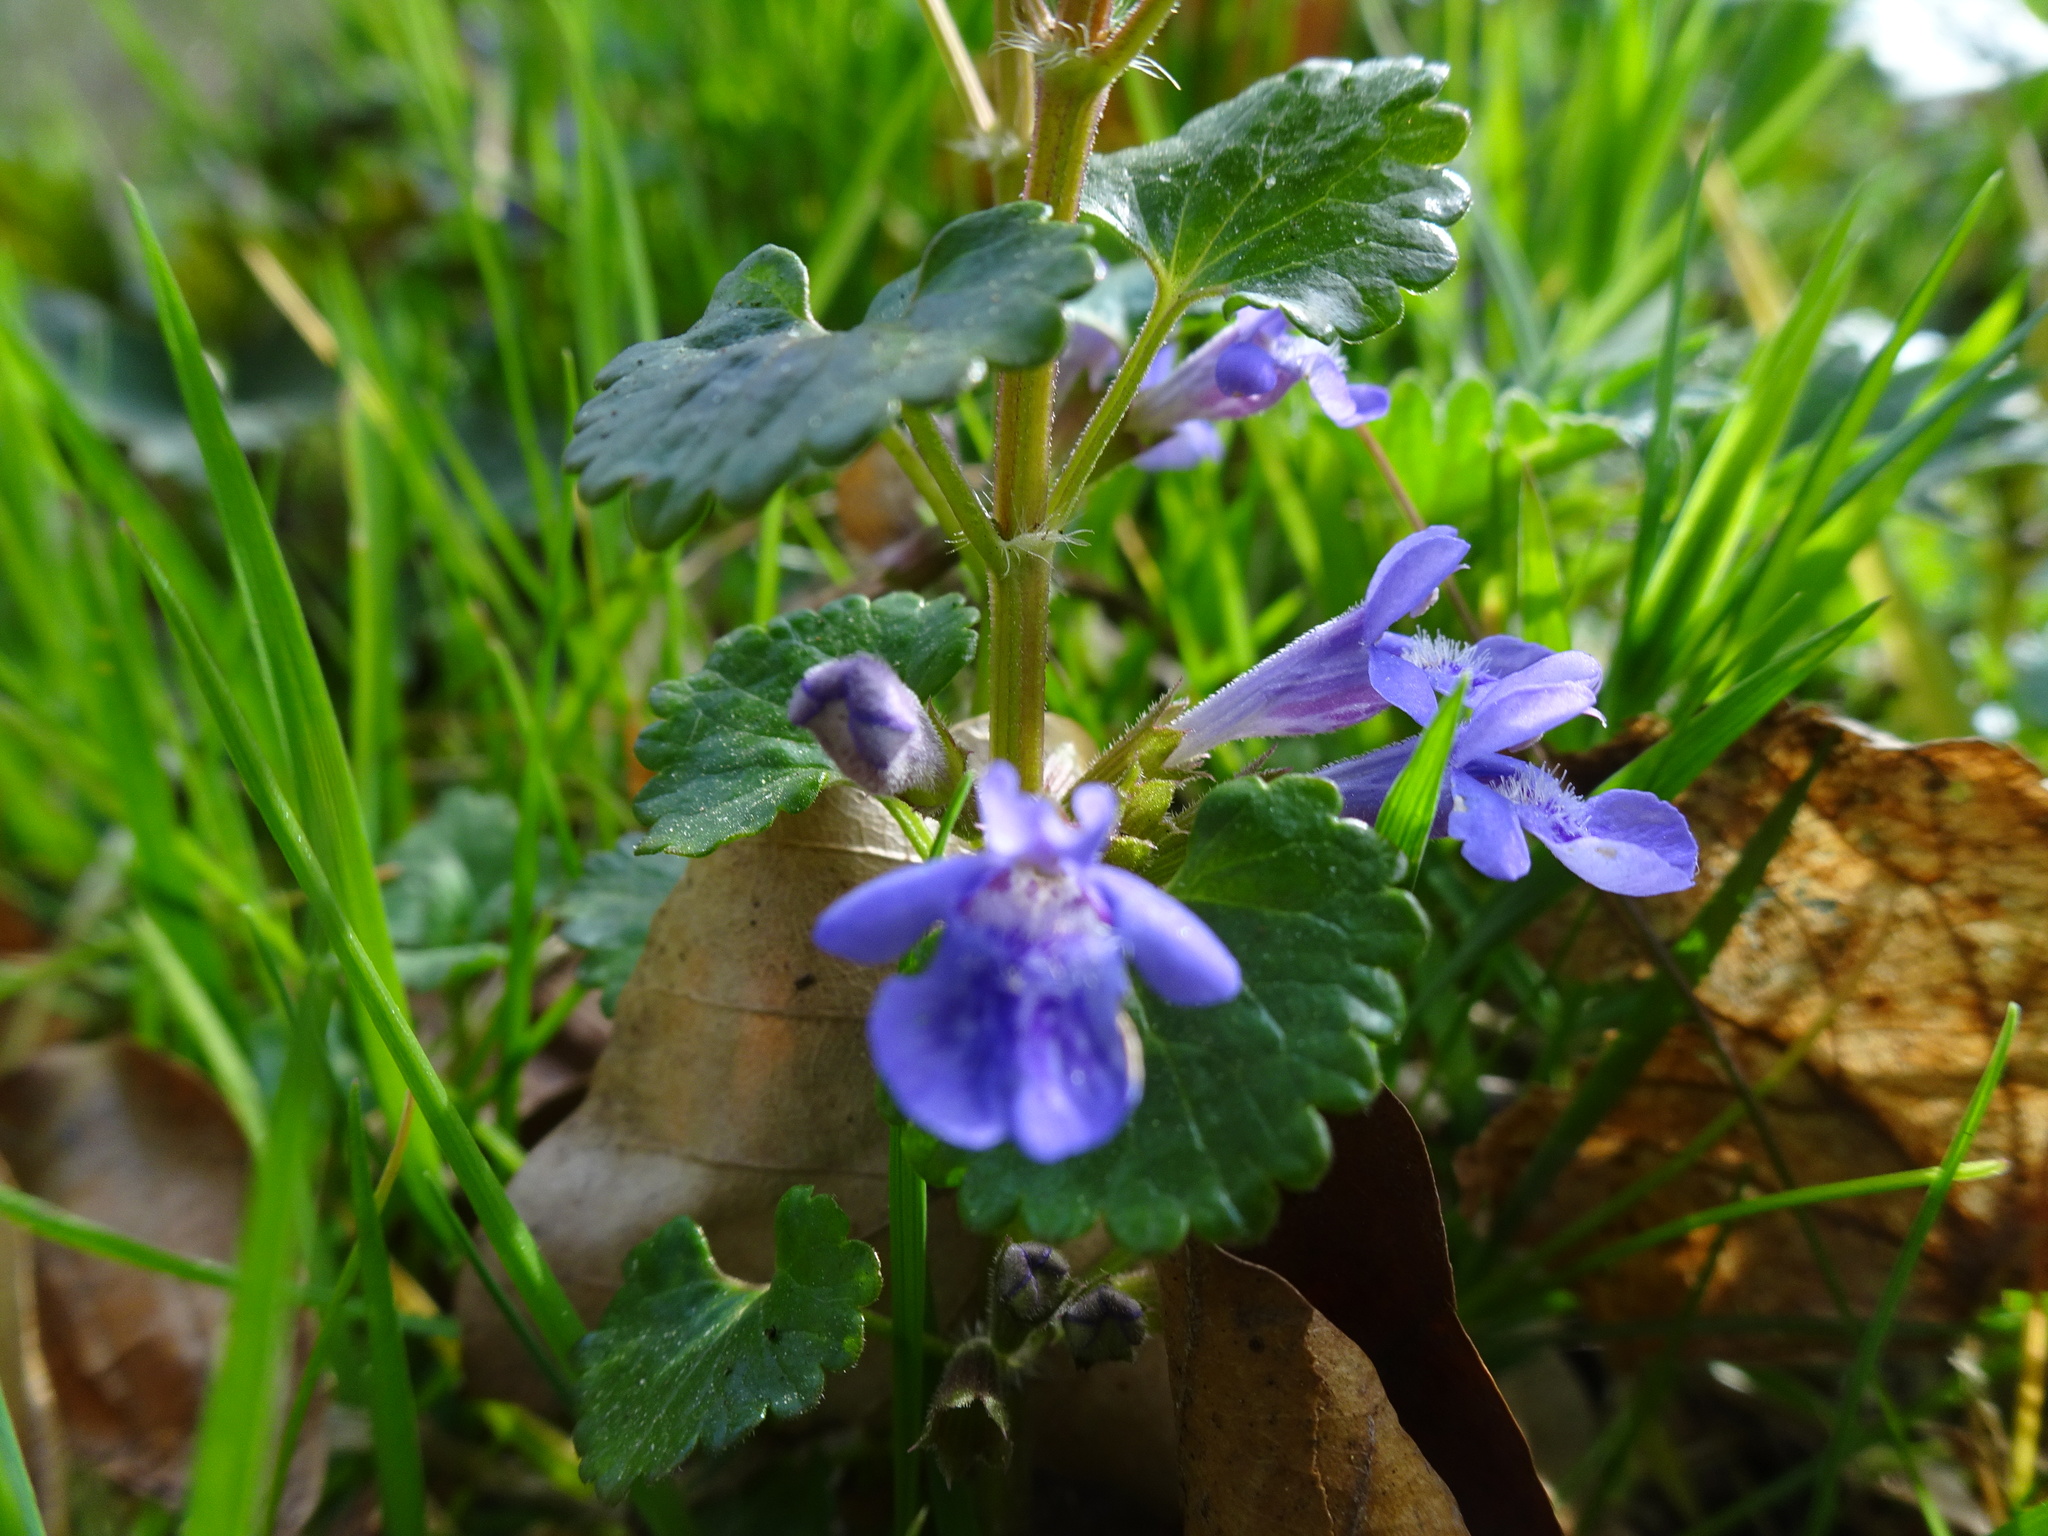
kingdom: Plantae
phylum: Tracheophyta
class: Magnoliopsida
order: Lamiales
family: Lamiaceae
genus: Glechoma
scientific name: Glechoma hederacea
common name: Ground ivy
